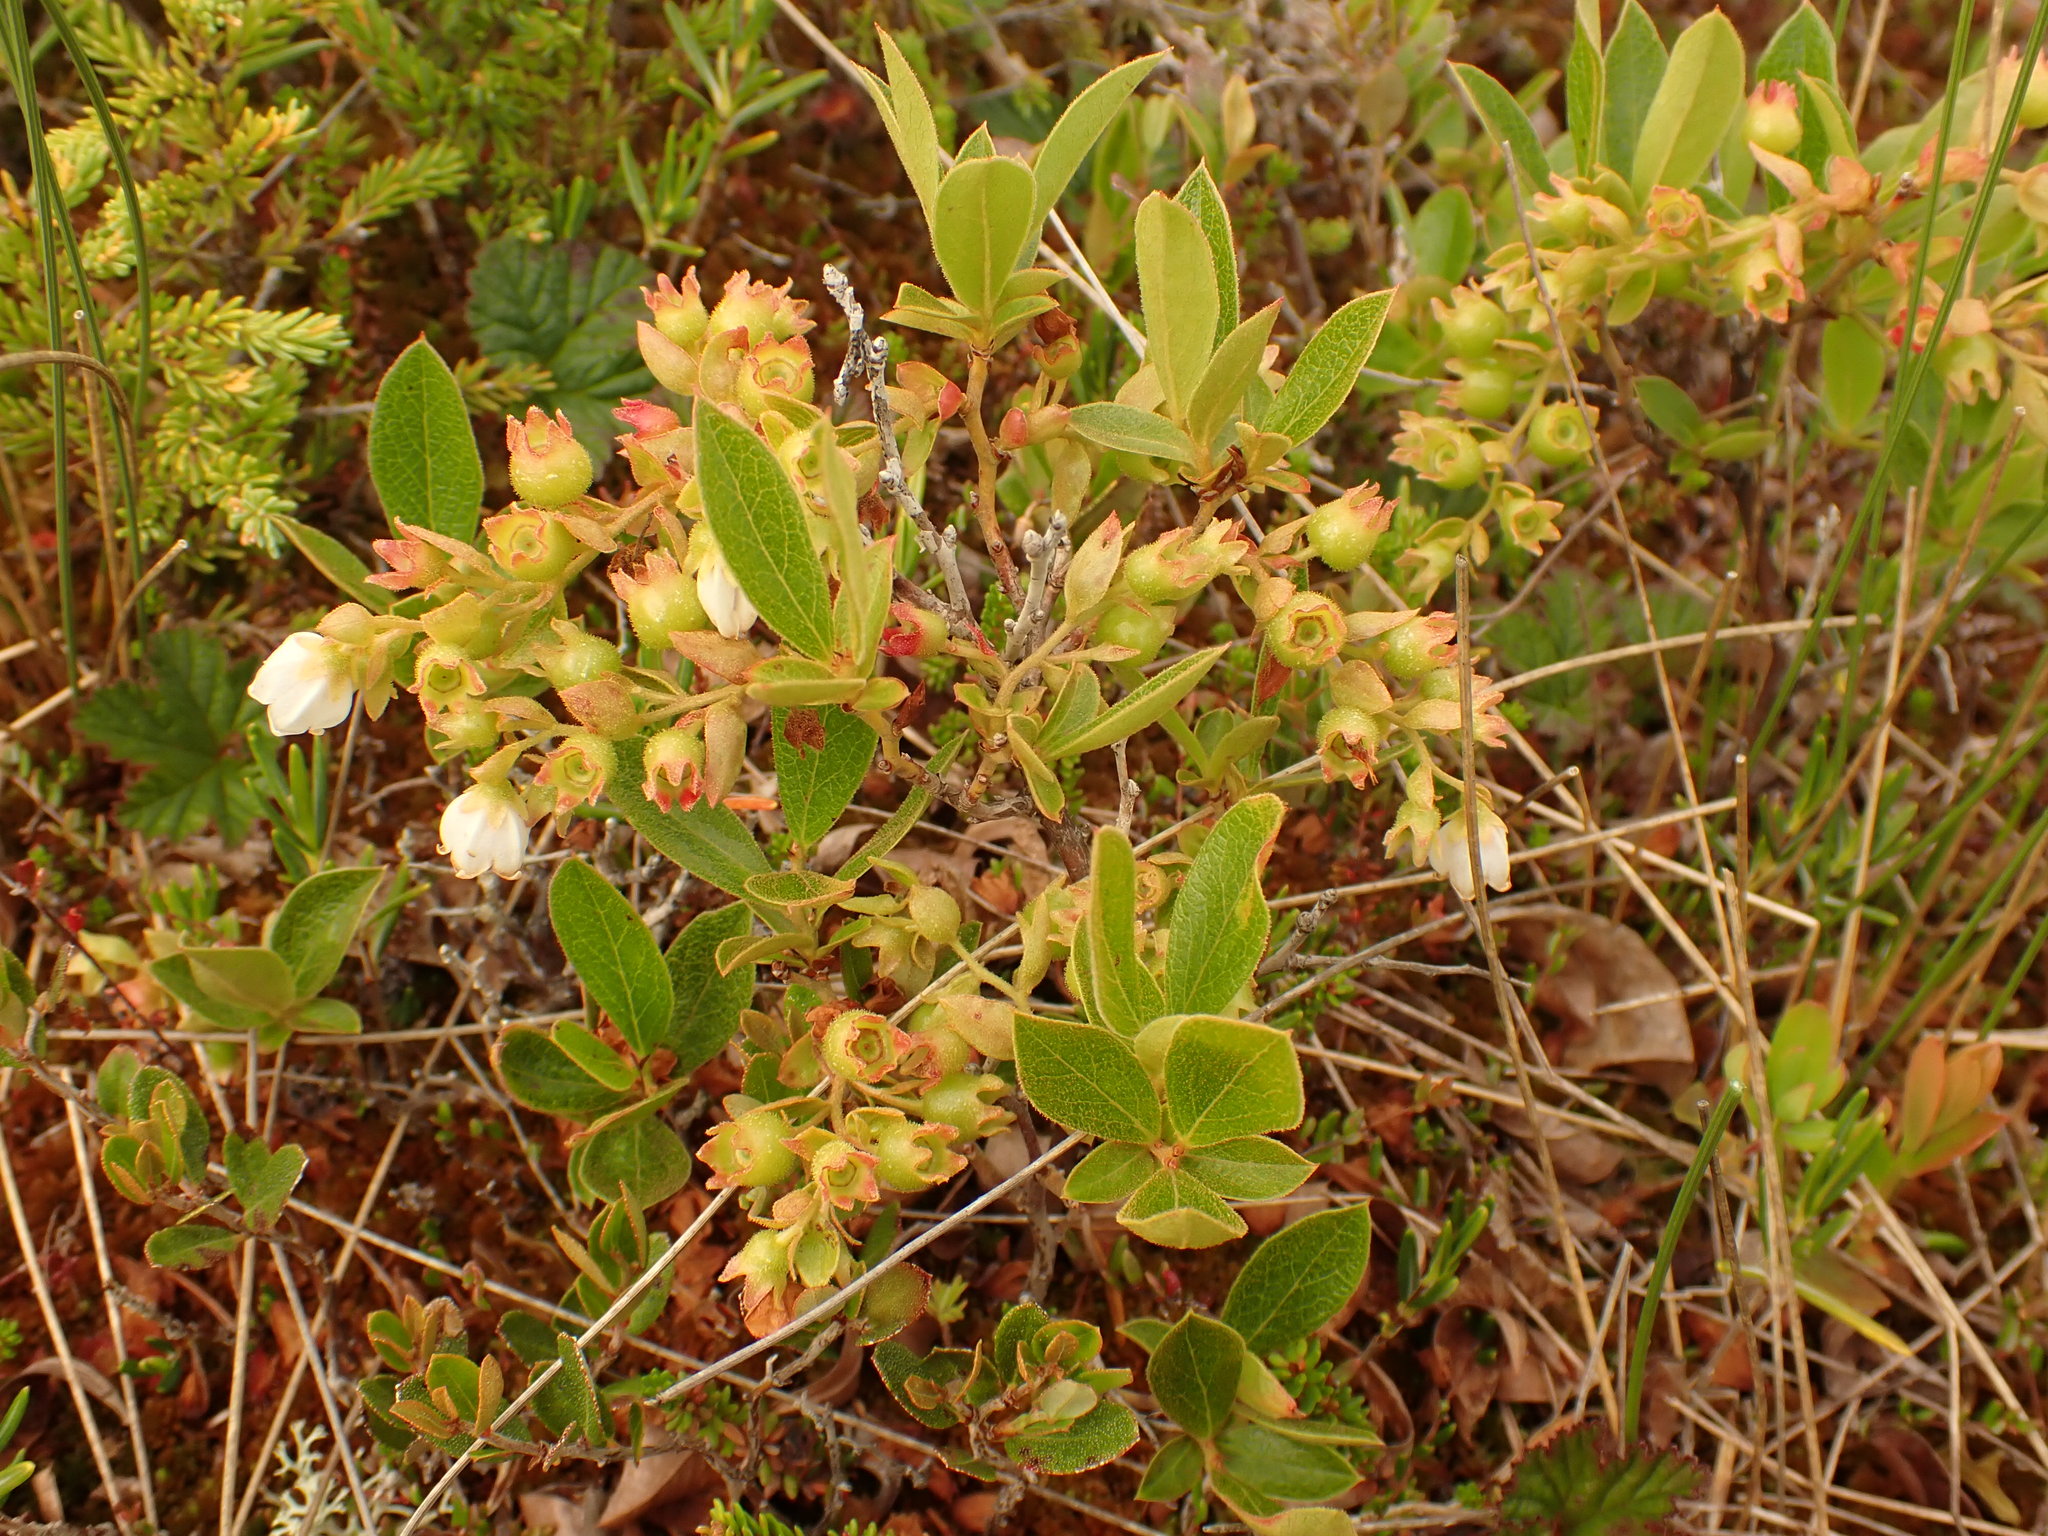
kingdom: Plantae
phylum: Tracheophyta
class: Magnoliopsida
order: Ericales
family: Ericaceae
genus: Gaylussacia
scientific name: Gaylussacia bigeloviana
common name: Bog huckleberry
